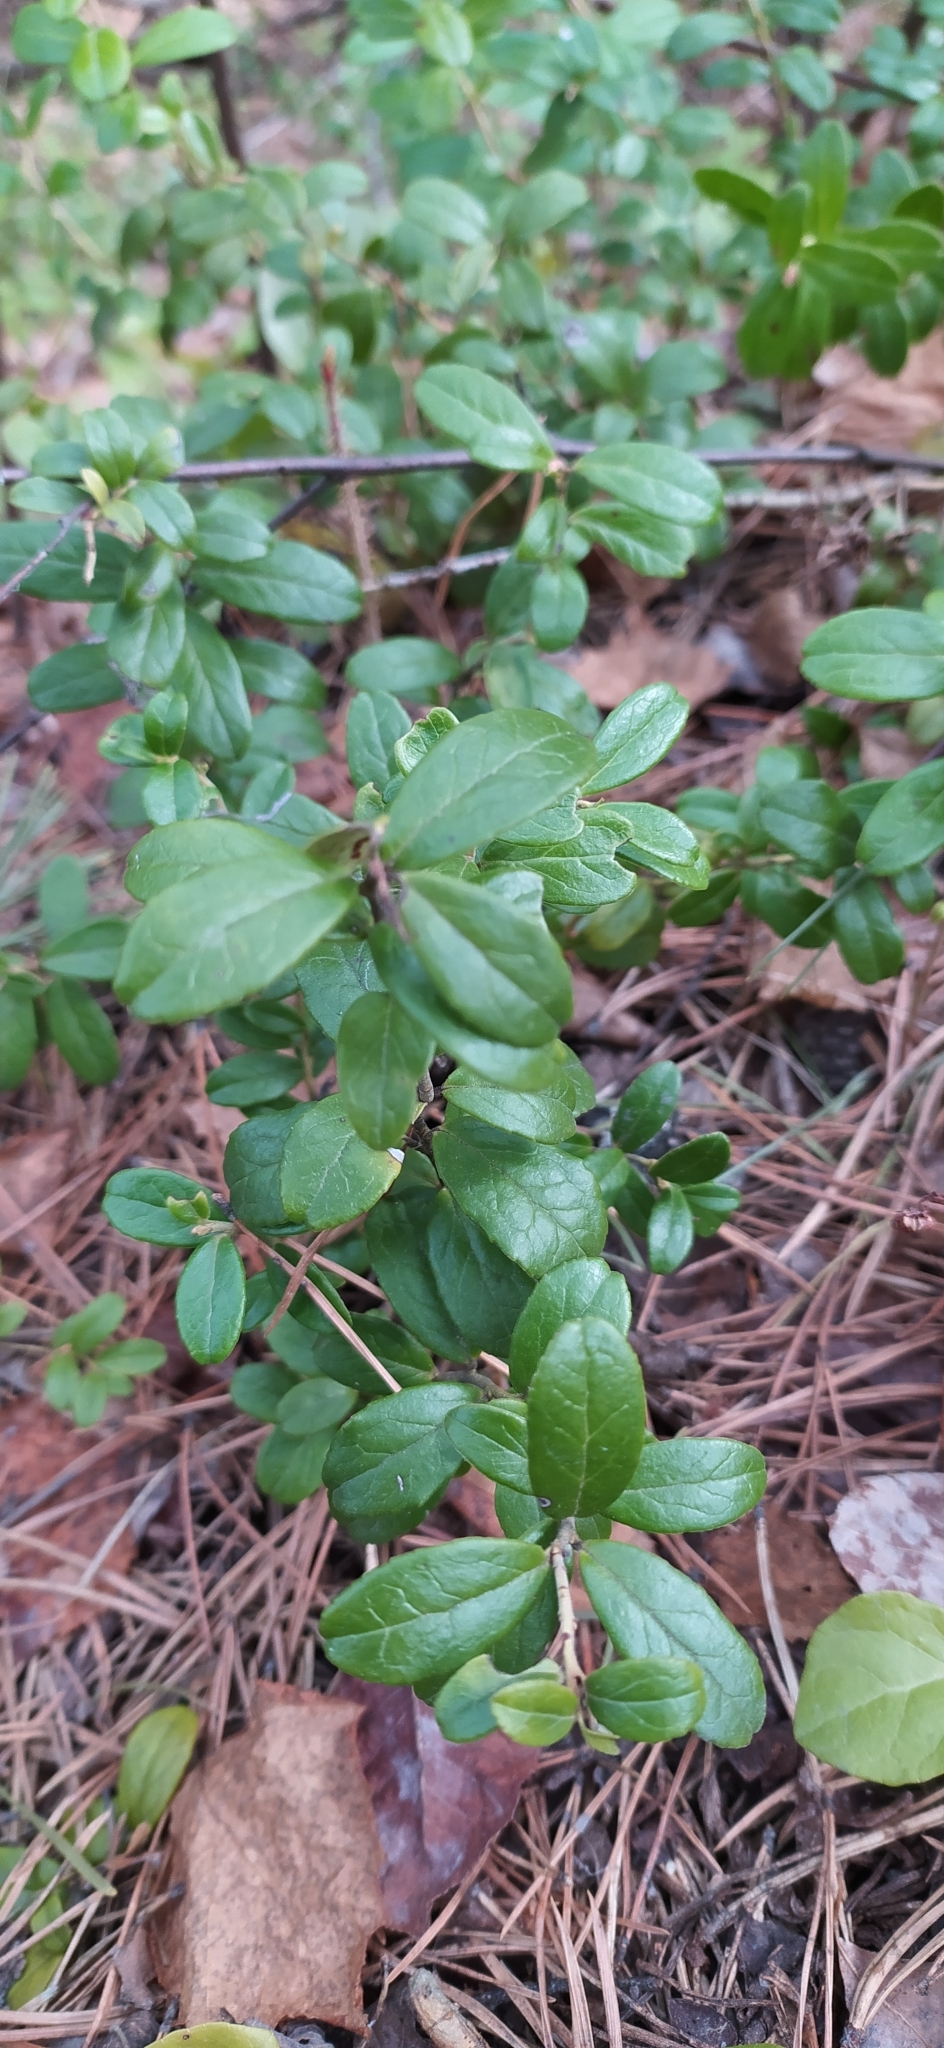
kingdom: Plantae
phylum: Tracheophyta
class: Magnoliopsida
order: Ericales
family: Ericaceae
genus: Vaccinium
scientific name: Vaccinium vitis-idaea
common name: Cowberry
